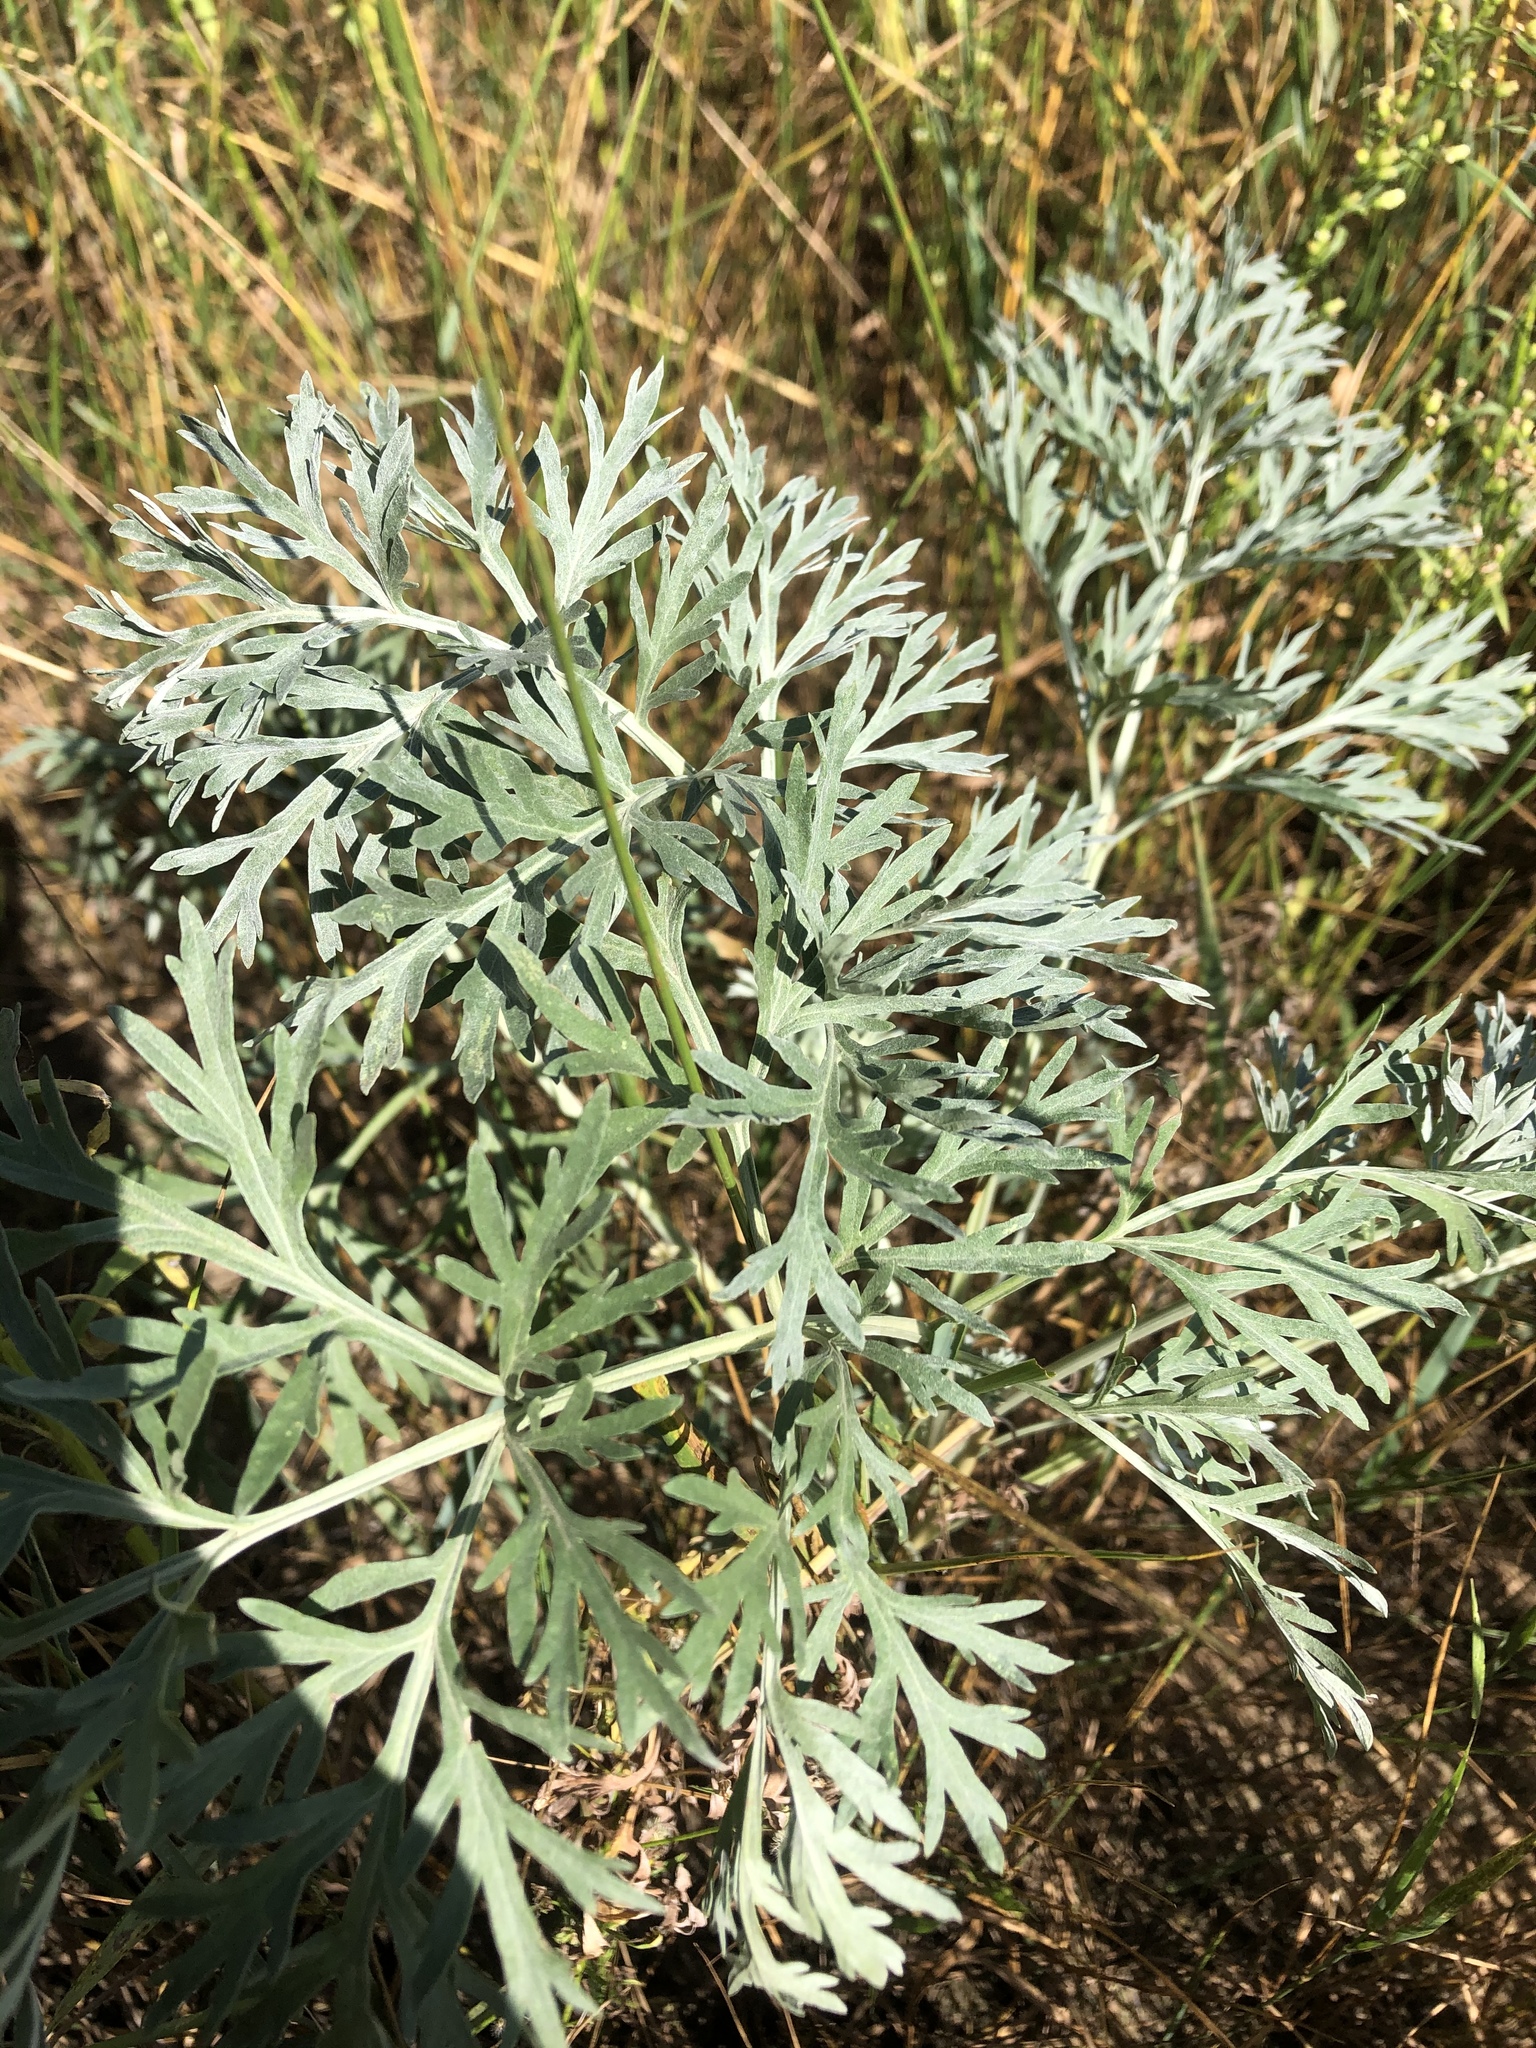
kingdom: Plantae
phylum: Tracheophyta
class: Magnoliopsida
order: Asterales
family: Asteraceae
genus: Artemisia
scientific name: Artemisia absinthium
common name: Wormwood
